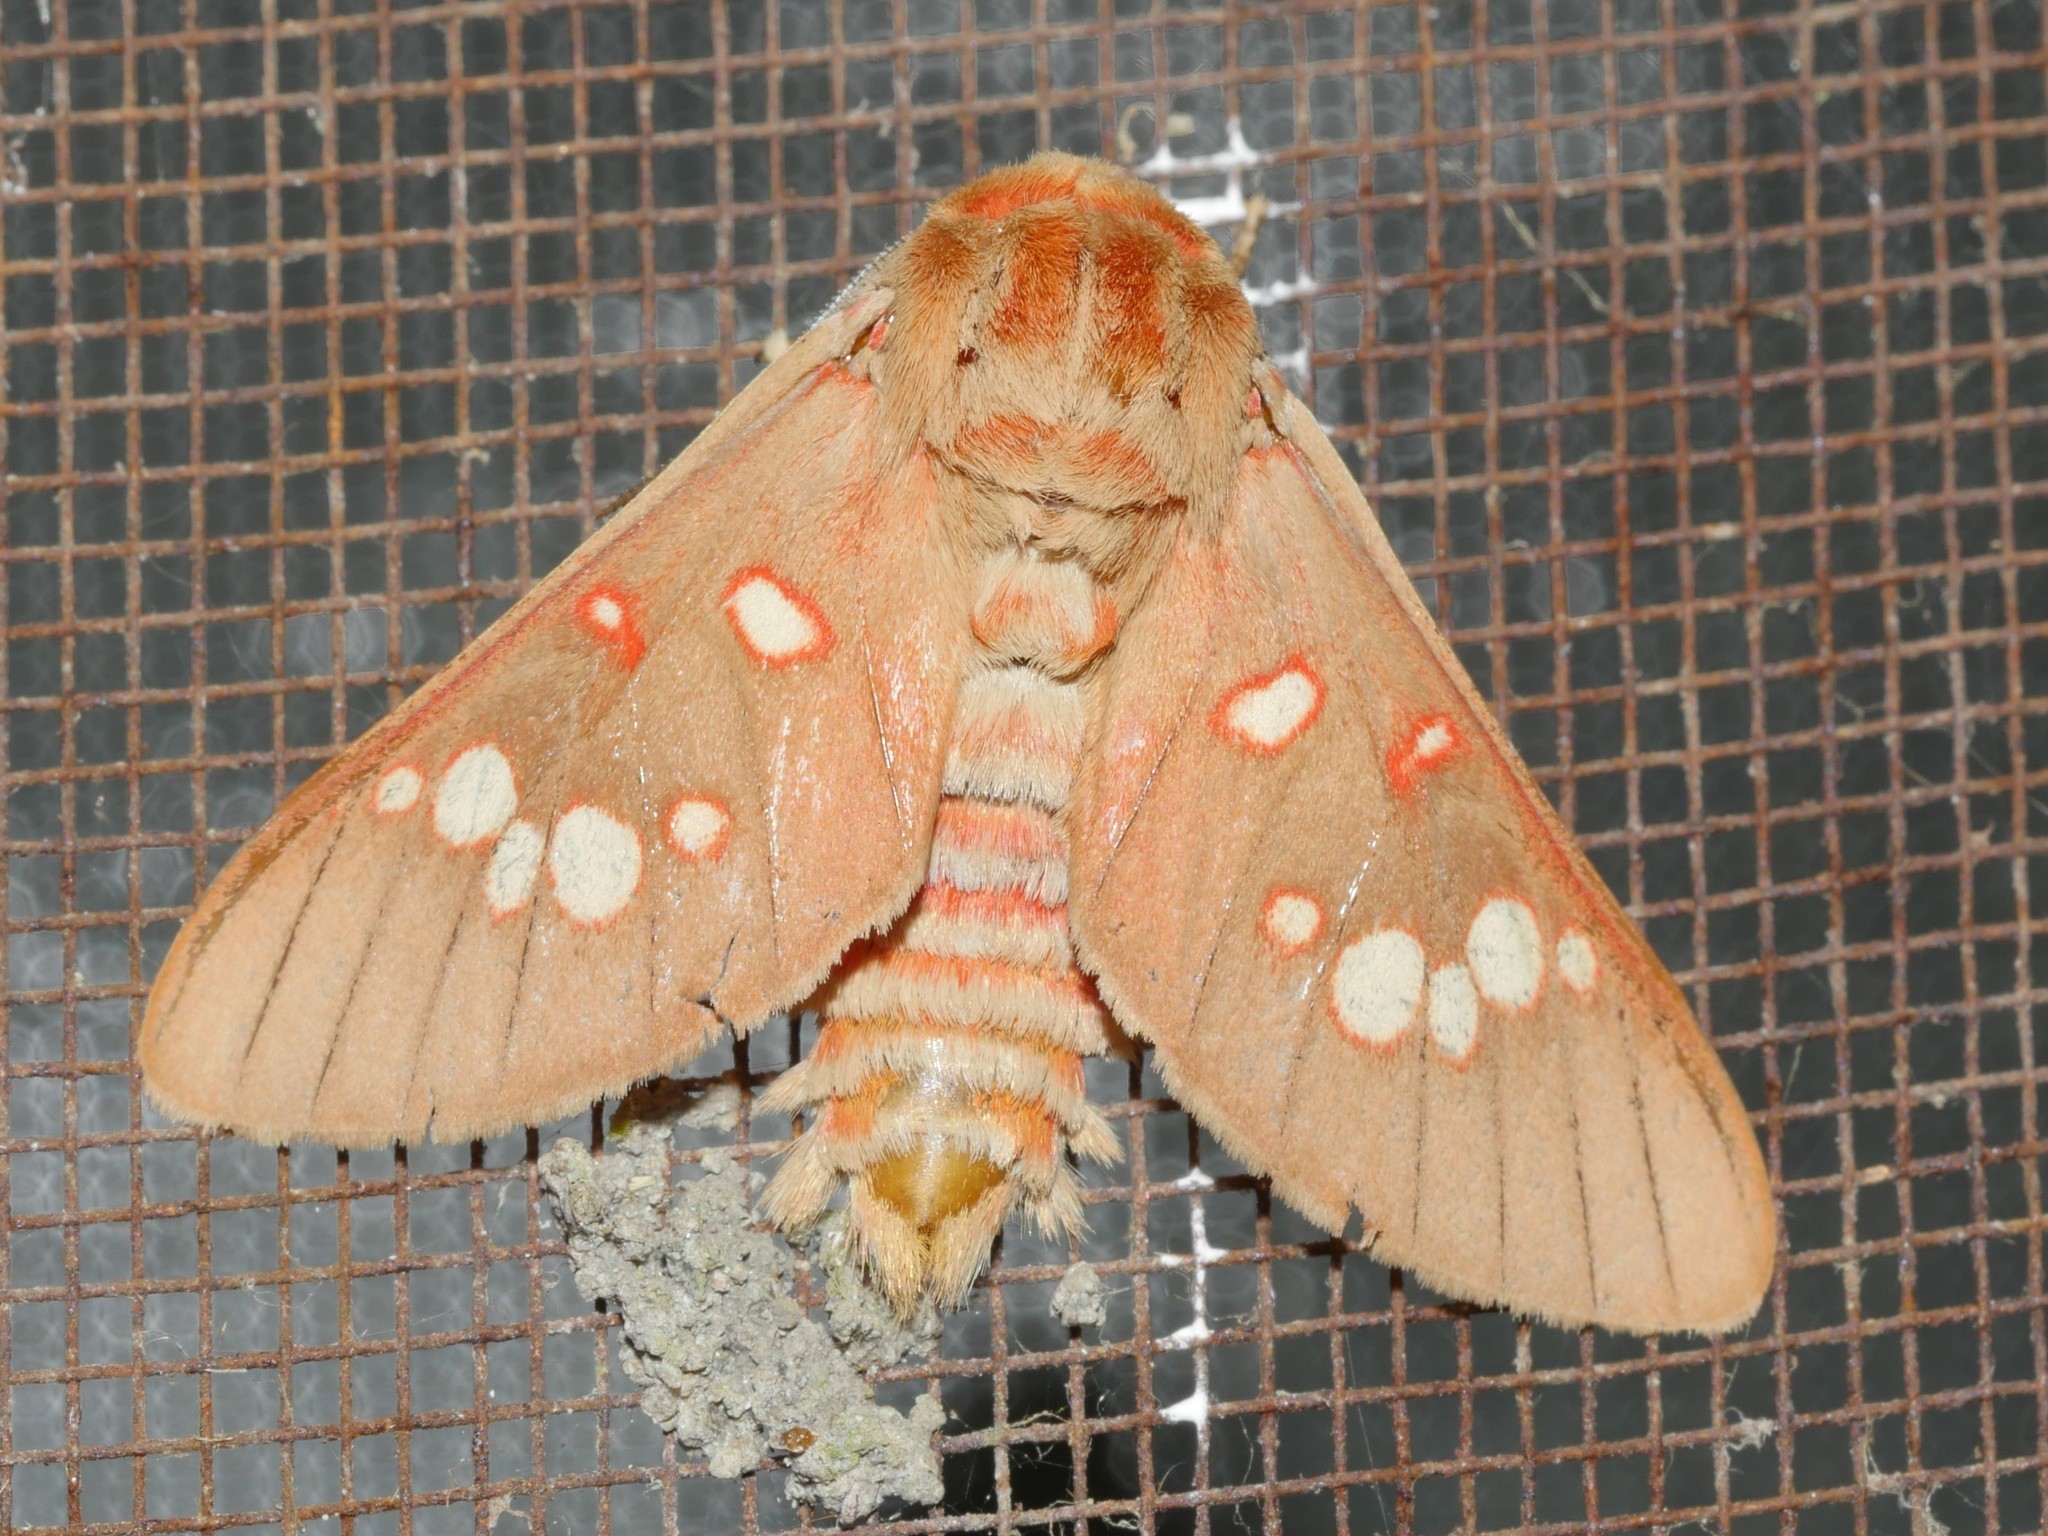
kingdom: Animalia
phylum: Arthropoda
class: Insecta
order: Lepidoptera
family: Erebidae
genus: Balacra
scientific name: Balacra preussi
